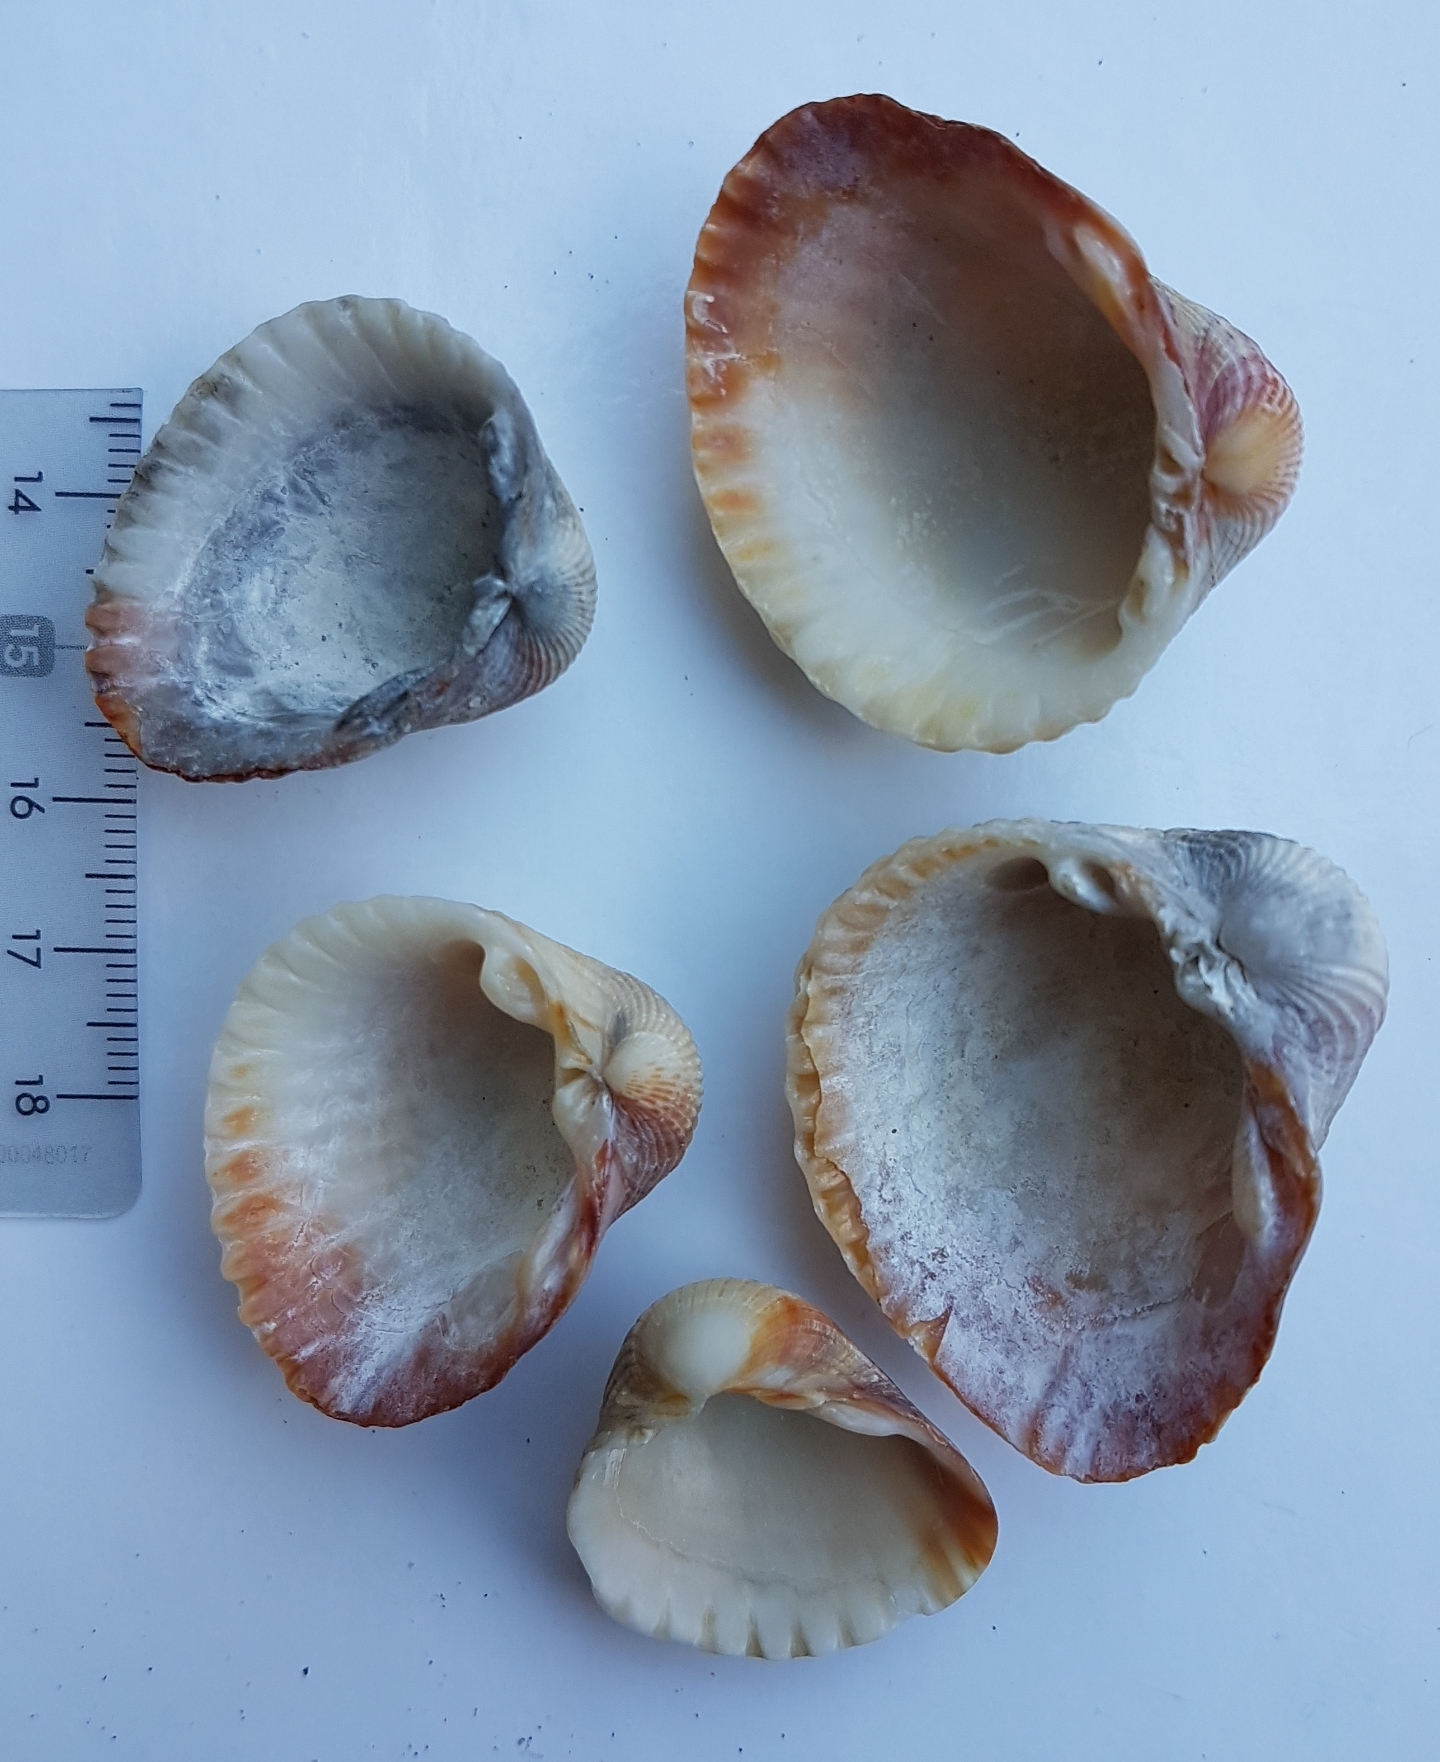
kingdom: Animalia
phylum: Mollusca
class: Bivalvia
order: Cardiida
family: Cardiidae
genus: Cerastoderma
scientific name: Cerastoderma glaucum
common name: Lagoon cockle
